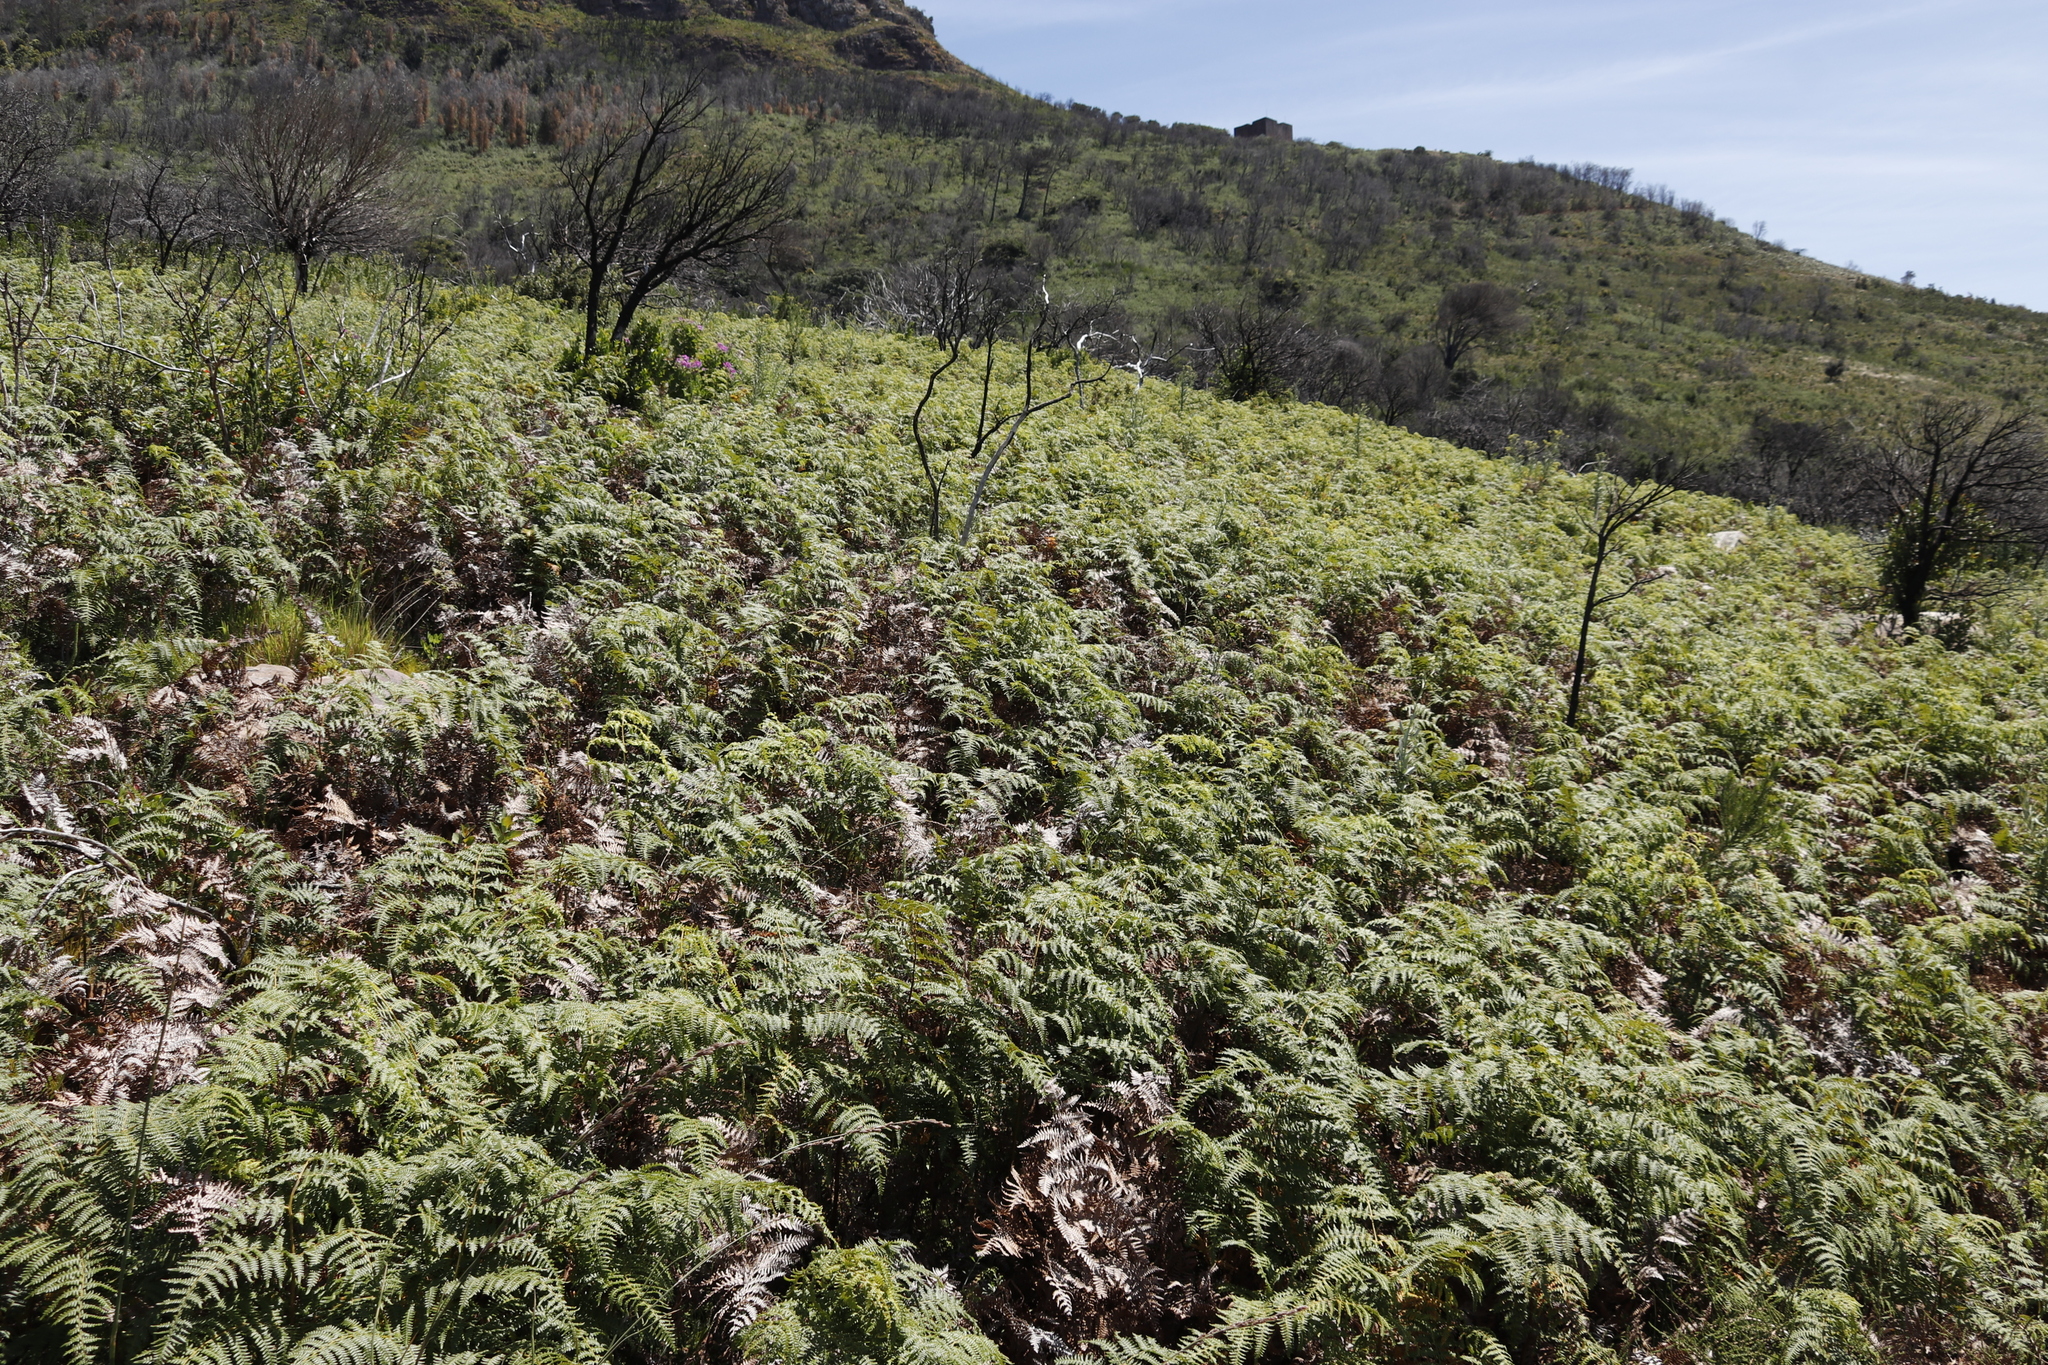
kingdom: Plantae
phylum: Tracheophyta
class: Polypodiopsida
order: Polypodiales
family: Dennstaedtiaceae
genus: Pteridium
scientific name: Pteridium aquilinum
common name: Bracken
